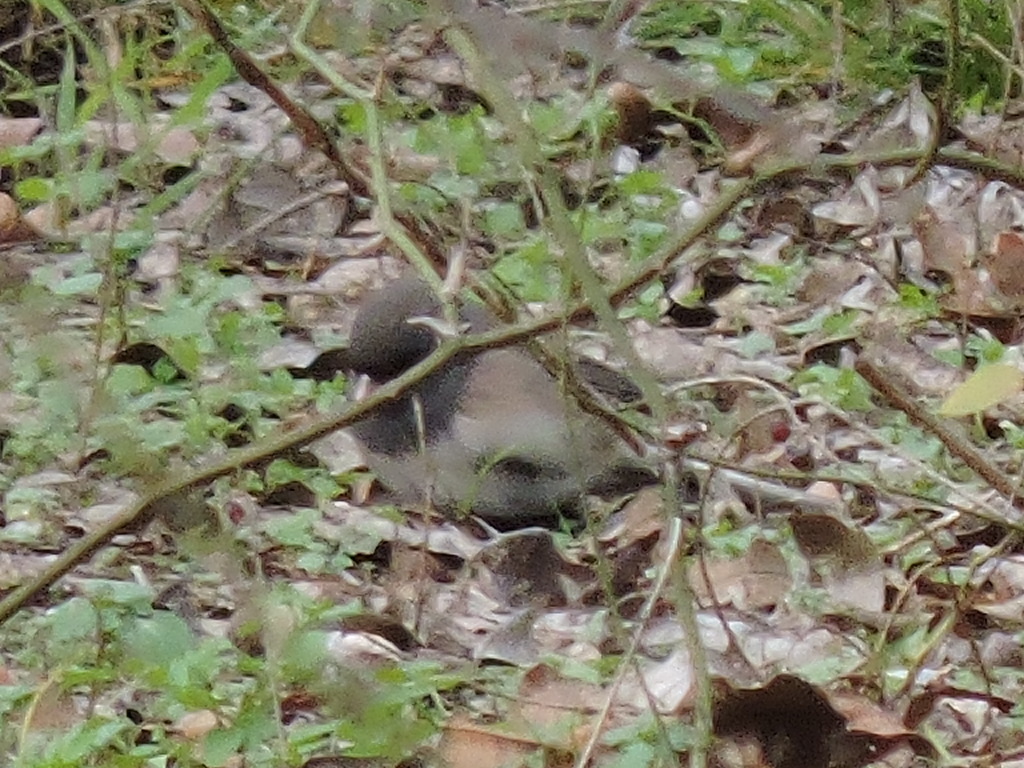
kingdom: Animalia
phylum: Chordata
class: Aves
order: Passeriformes
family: Passerellidae
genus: Junco
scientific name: Junco hyemalis
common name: Dark-eyed junco
